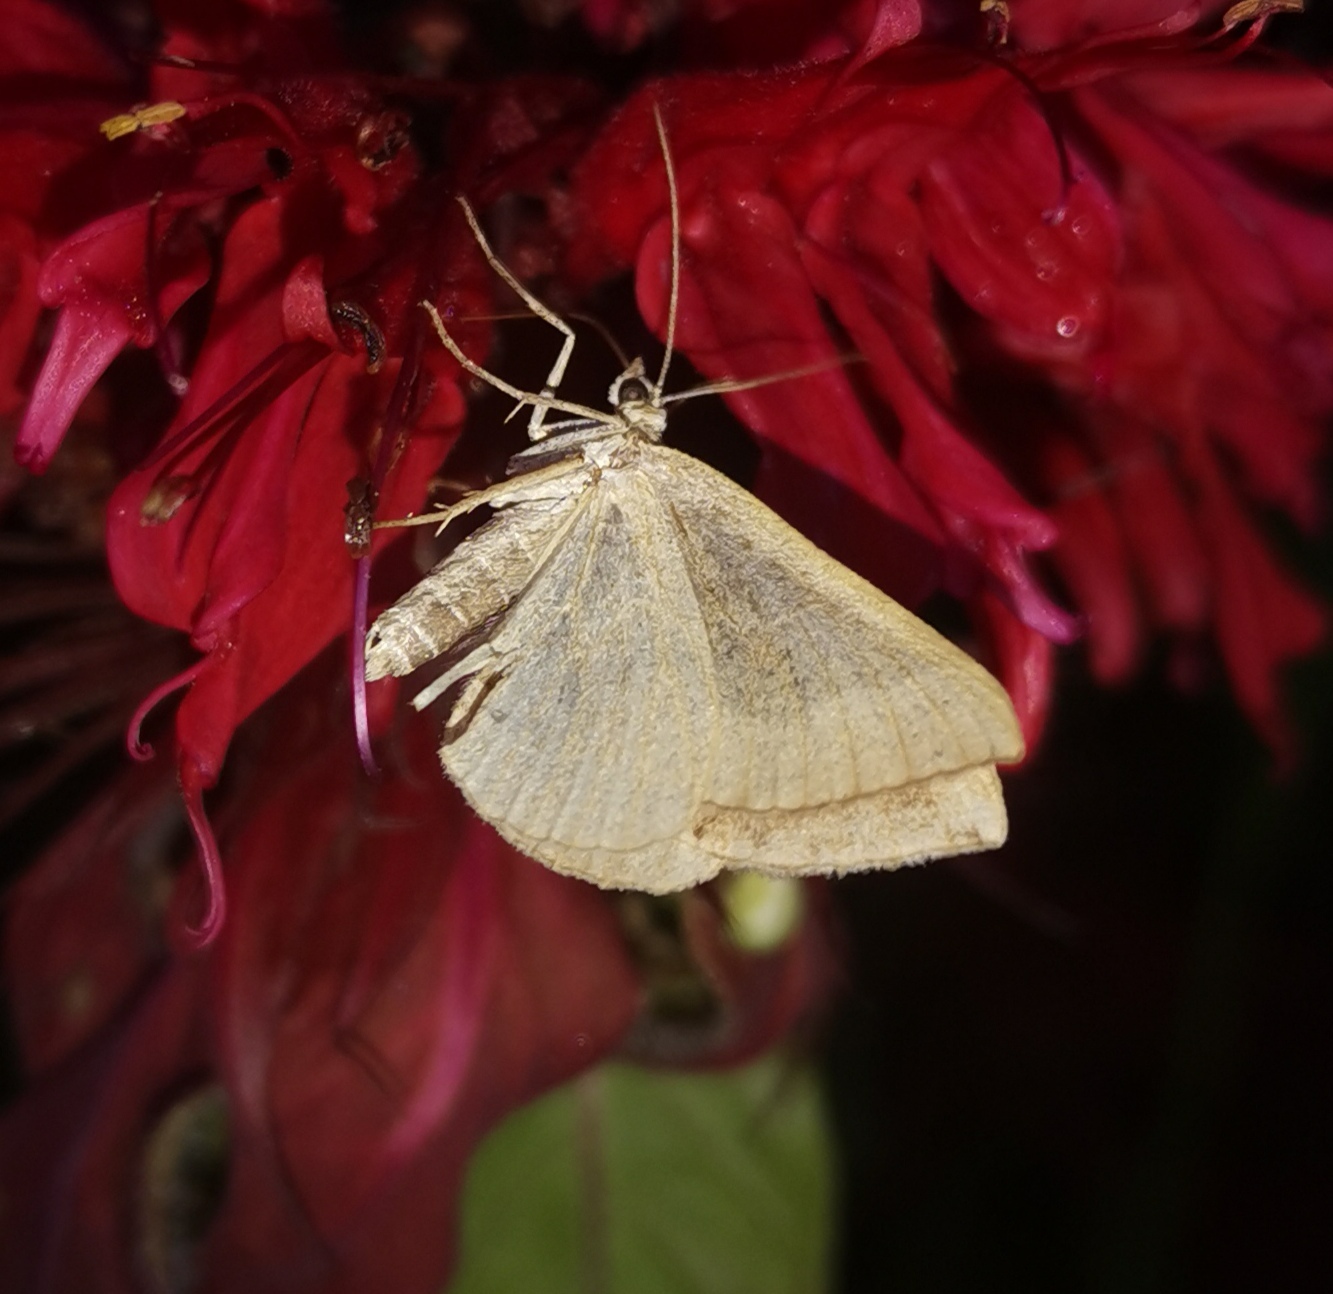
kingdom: Animalia
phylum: Arthropoda
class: Insecta
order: Lepidoptera
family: Geometridae
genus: Scotopteryx
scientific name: Scotopteryx chenopodiata
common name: Shaded broad-bar
